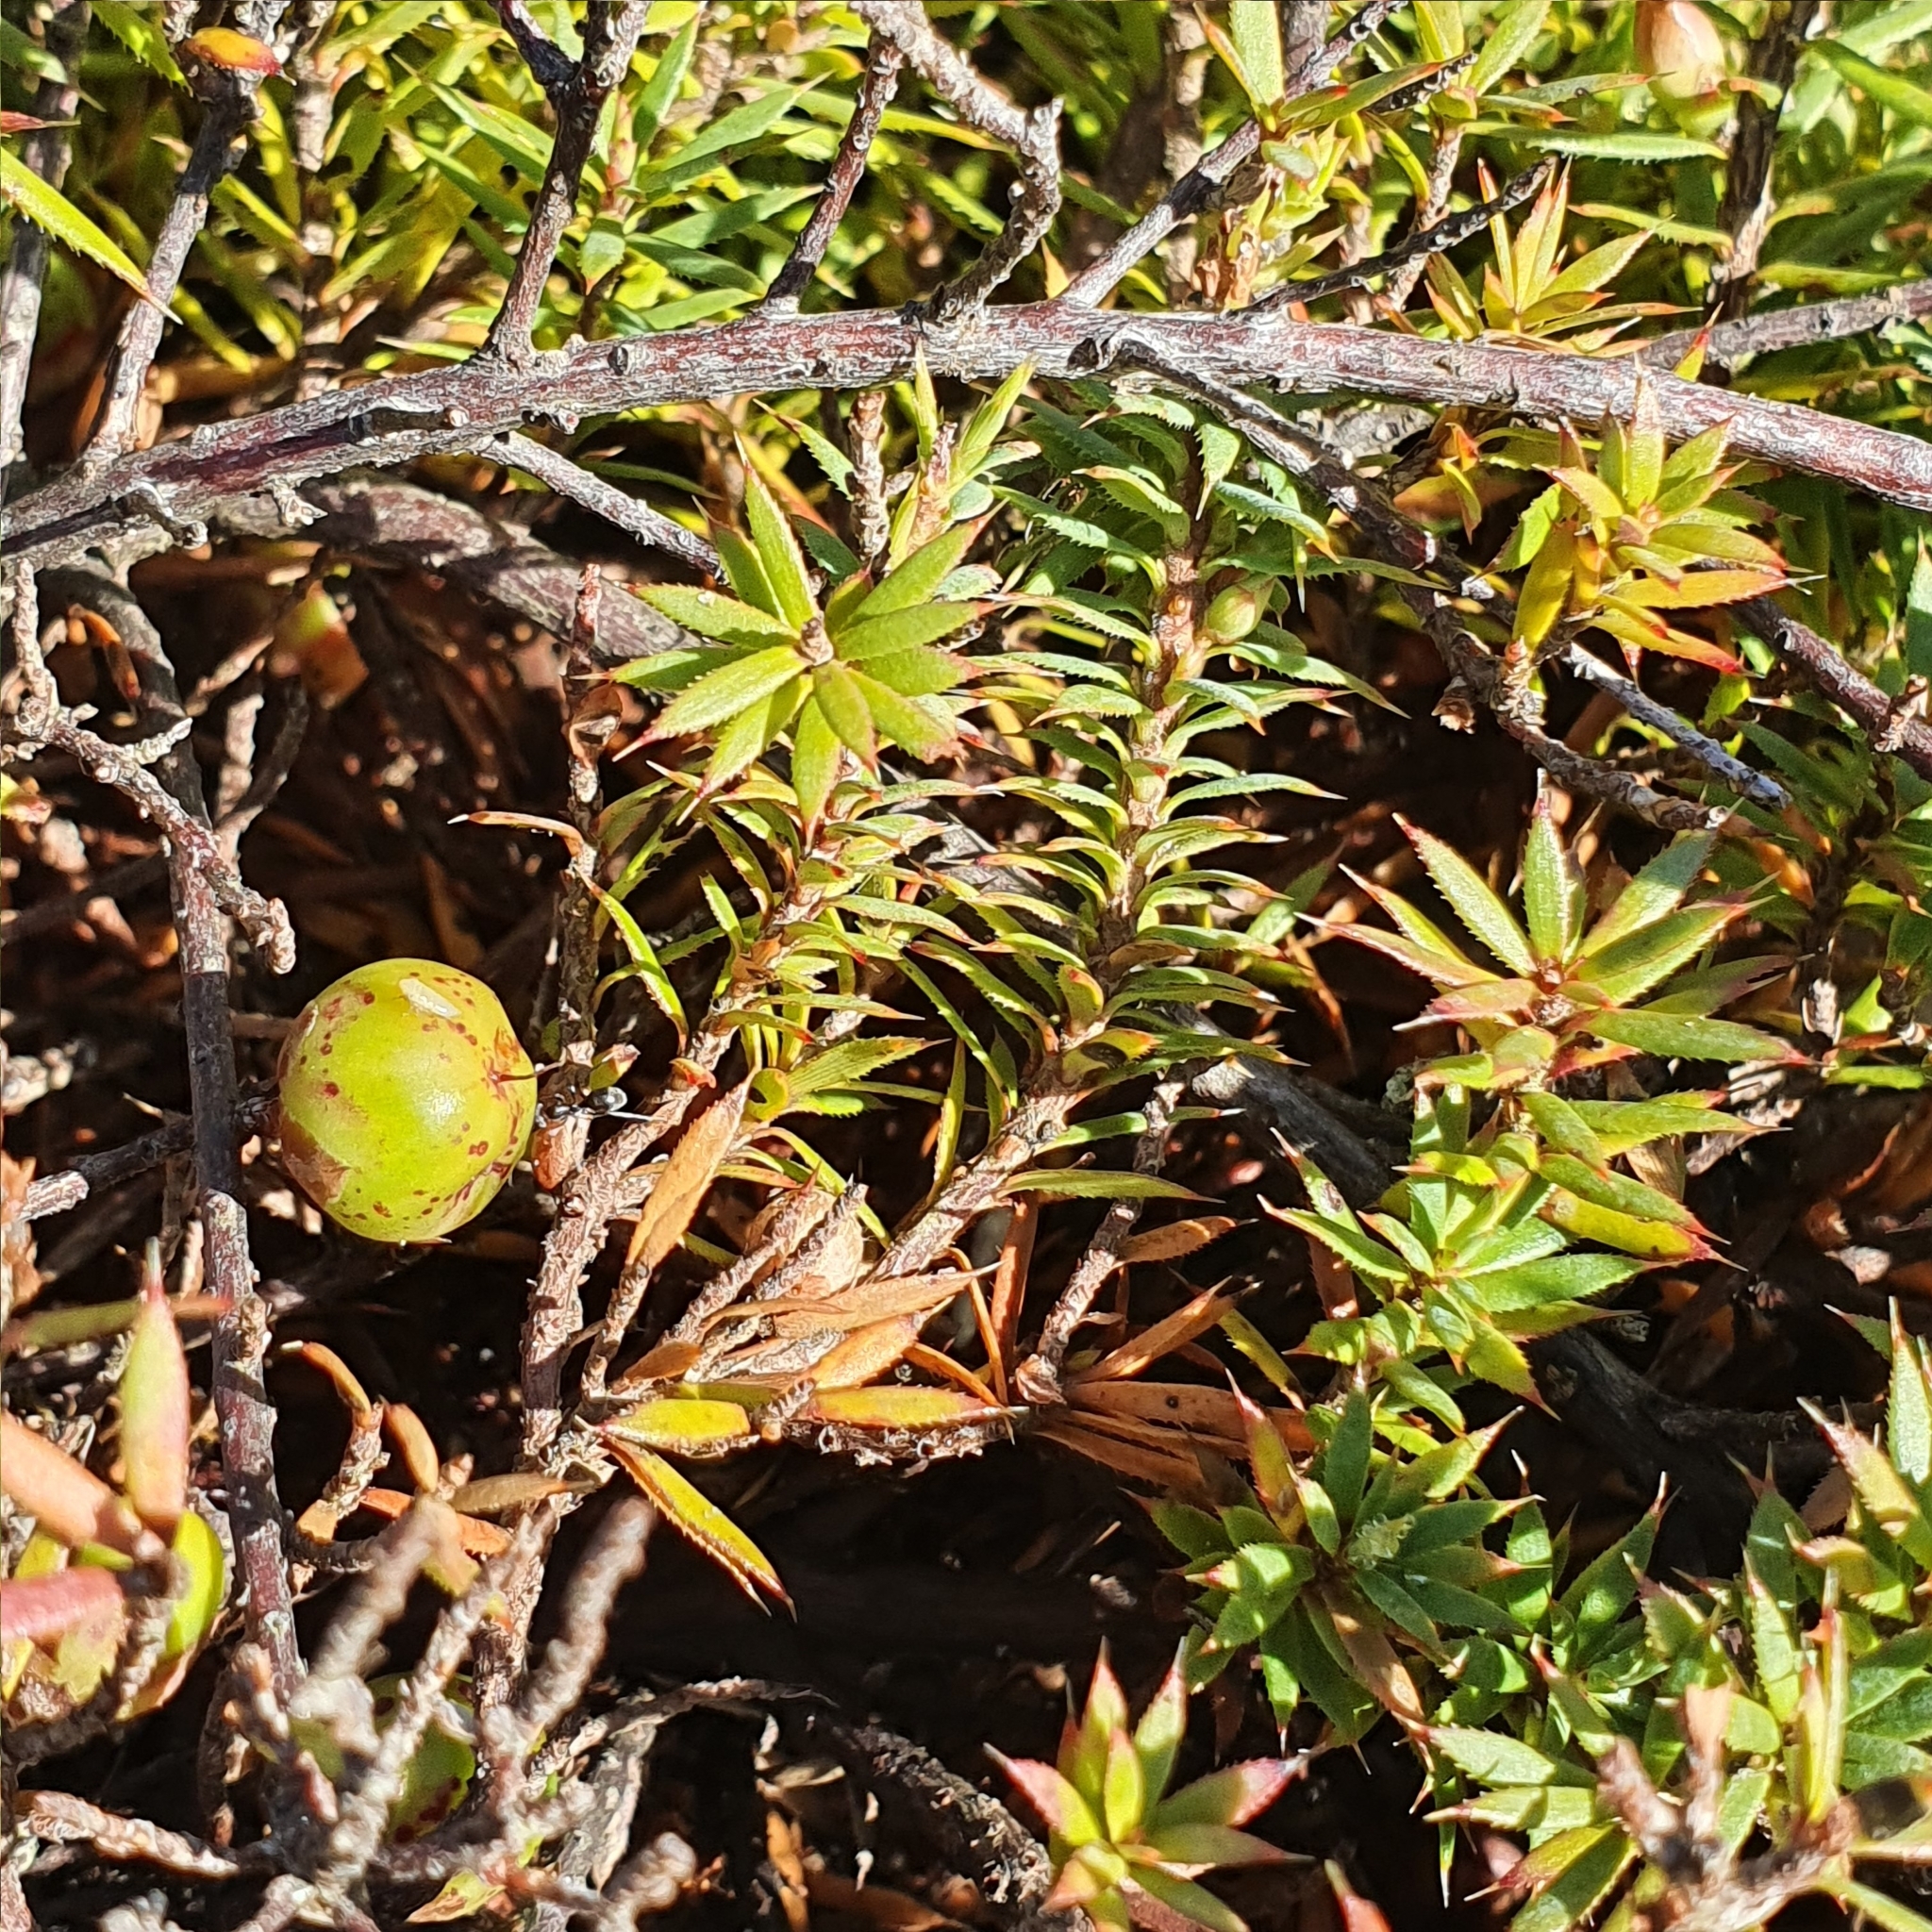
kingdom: Plantae
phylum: Tracheophyta
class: Magnoliopsida
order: Ericales
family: Ericaceae
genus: Styphelia
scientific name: Styphelia humifusa
